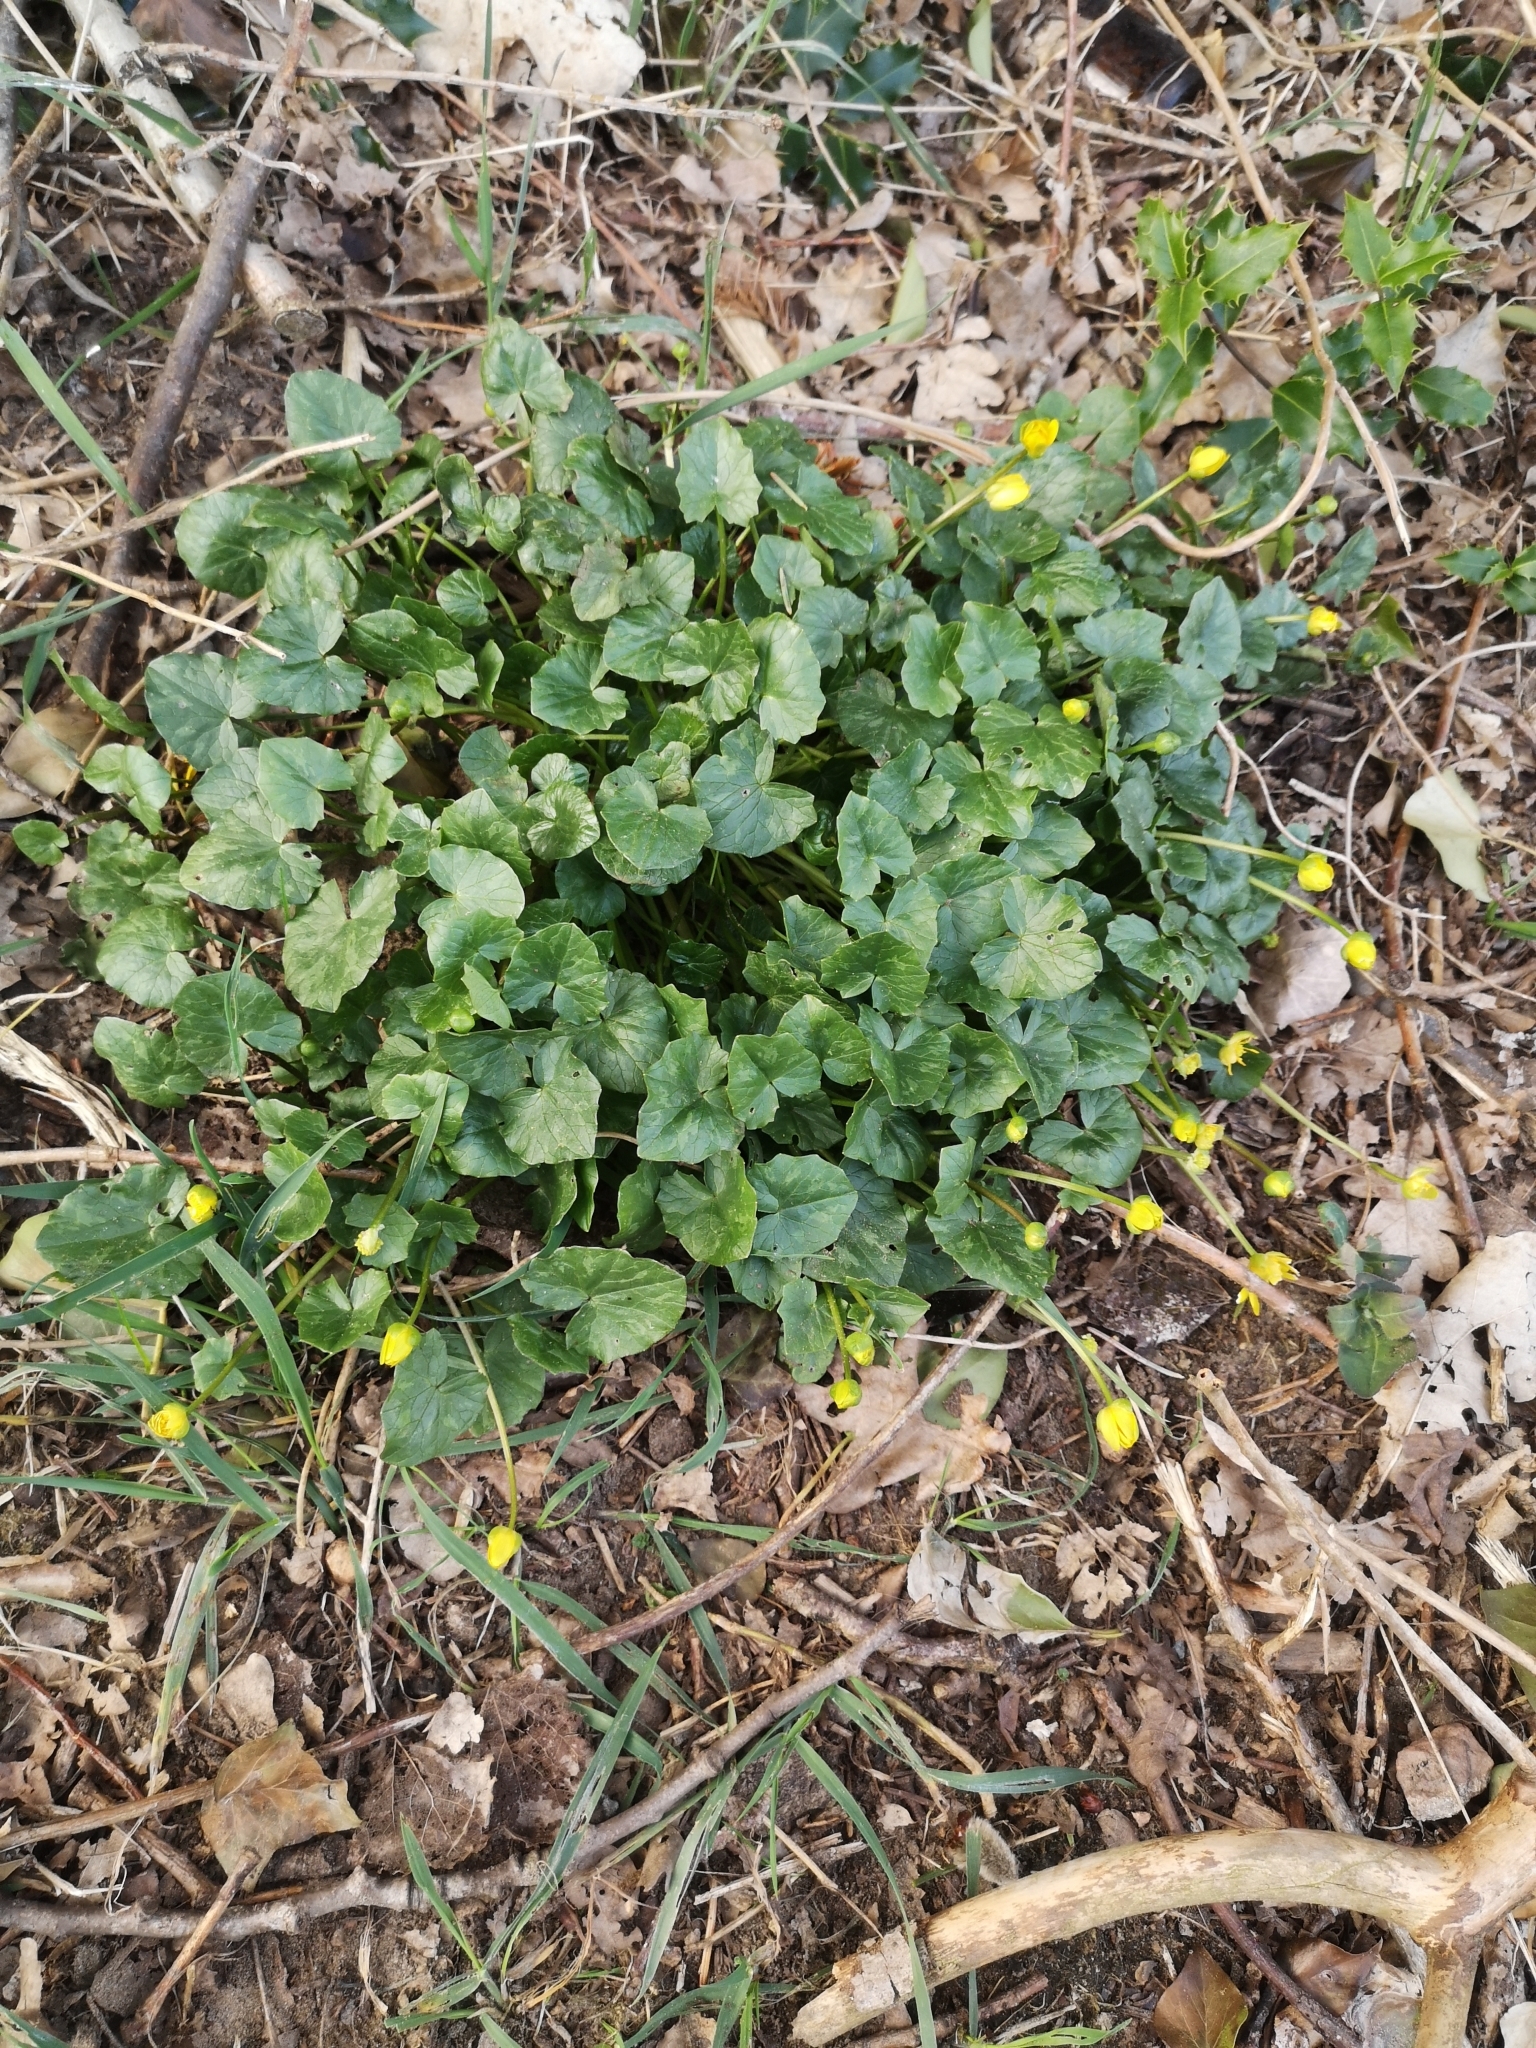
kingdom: Plantae
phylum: Tracheophyta
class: Magnoliopsida
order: Ranunculales
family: Ranunculaceae
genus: Ficaria
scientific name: Ficaria verna
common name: Lesser celandine
